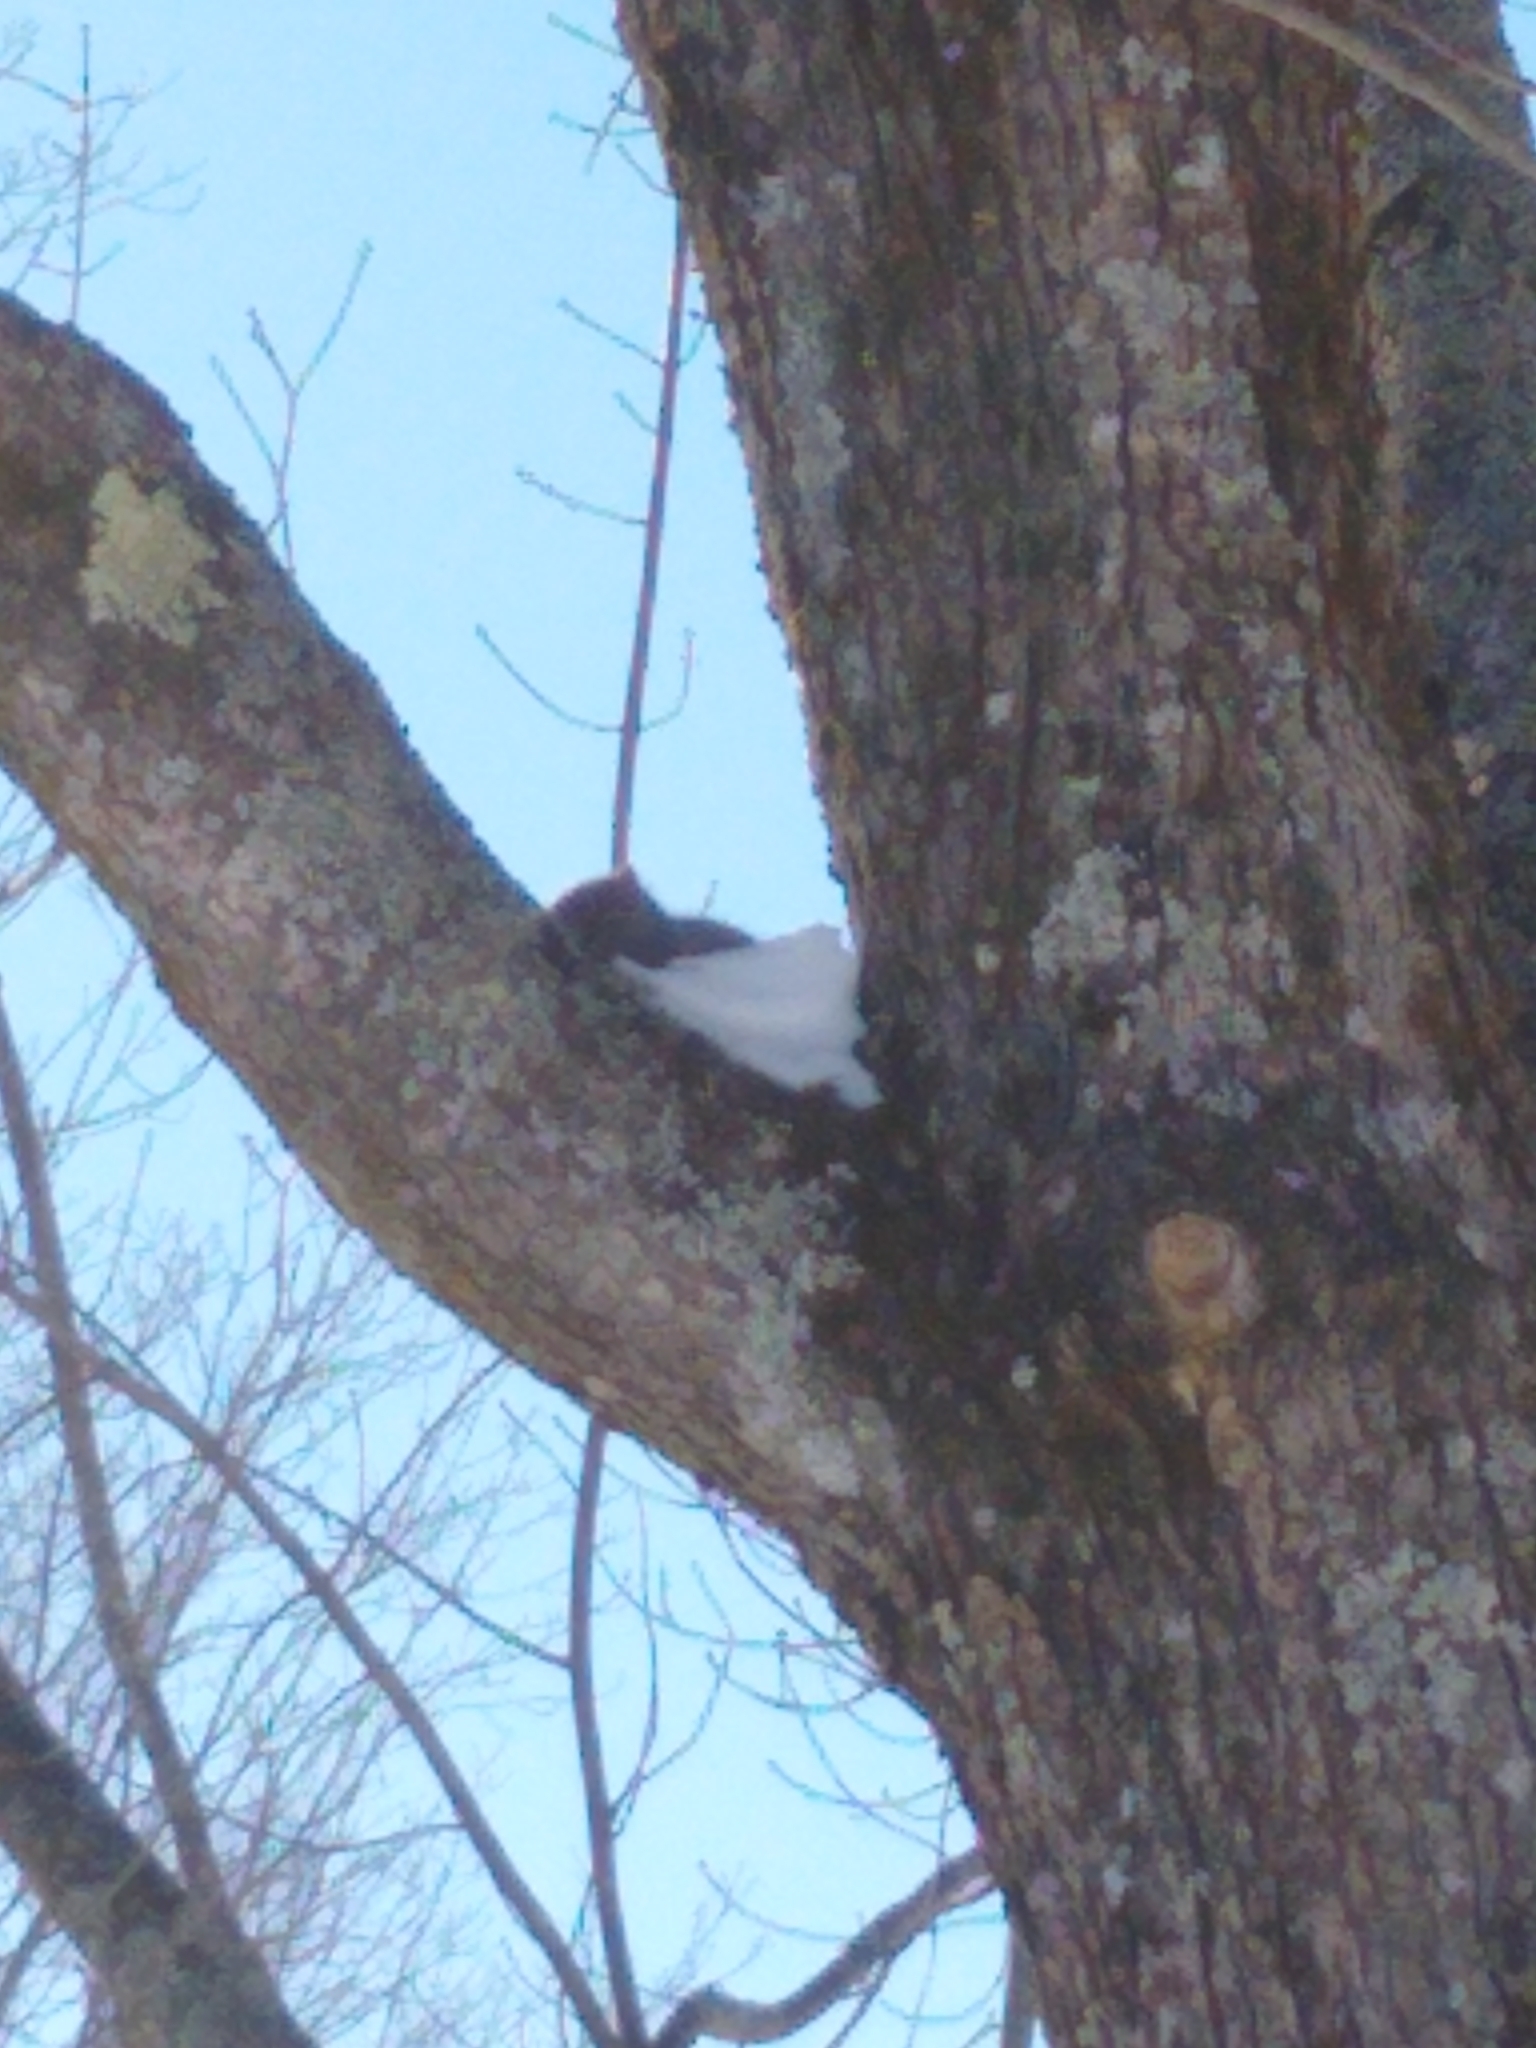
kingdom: Animalia
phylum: Chordata
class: Mammalia
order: Rodentia
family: Sciuridae
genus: Sciurus
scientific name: Sciurus carolinensis
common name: Eastern gray squirrel
